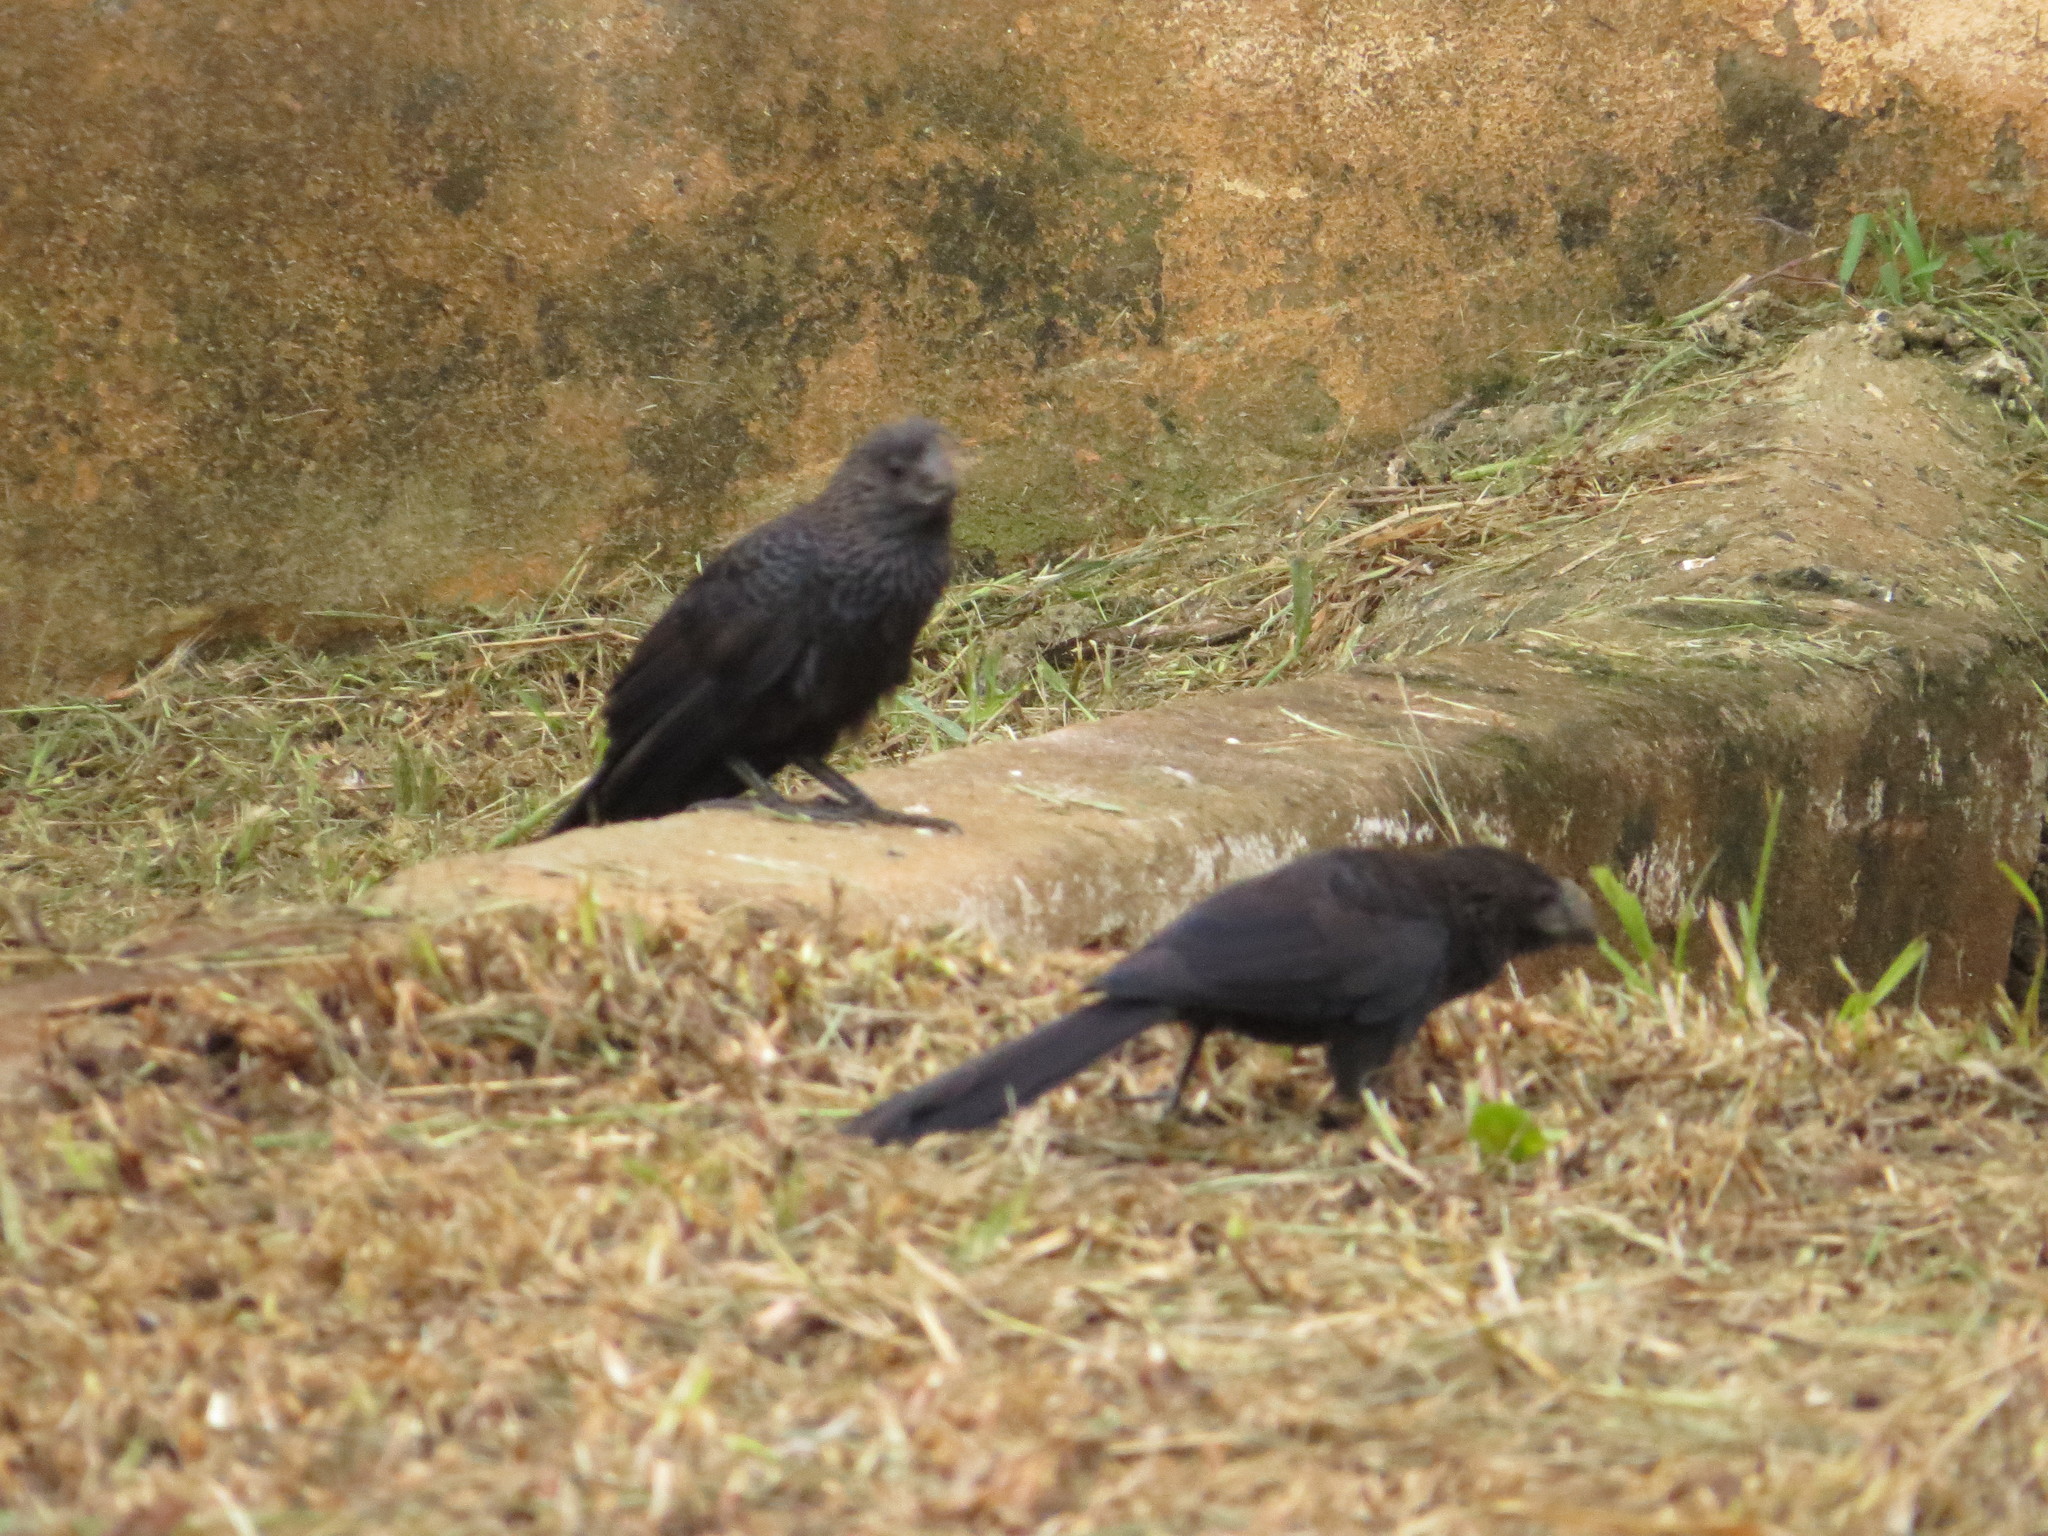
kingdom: Animalia
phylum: Chordata
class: Aves
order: Cuculiformes
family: Cuculidae
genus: Crotophaga
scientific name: Crotophaga ani
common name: Smooth-billed ani
